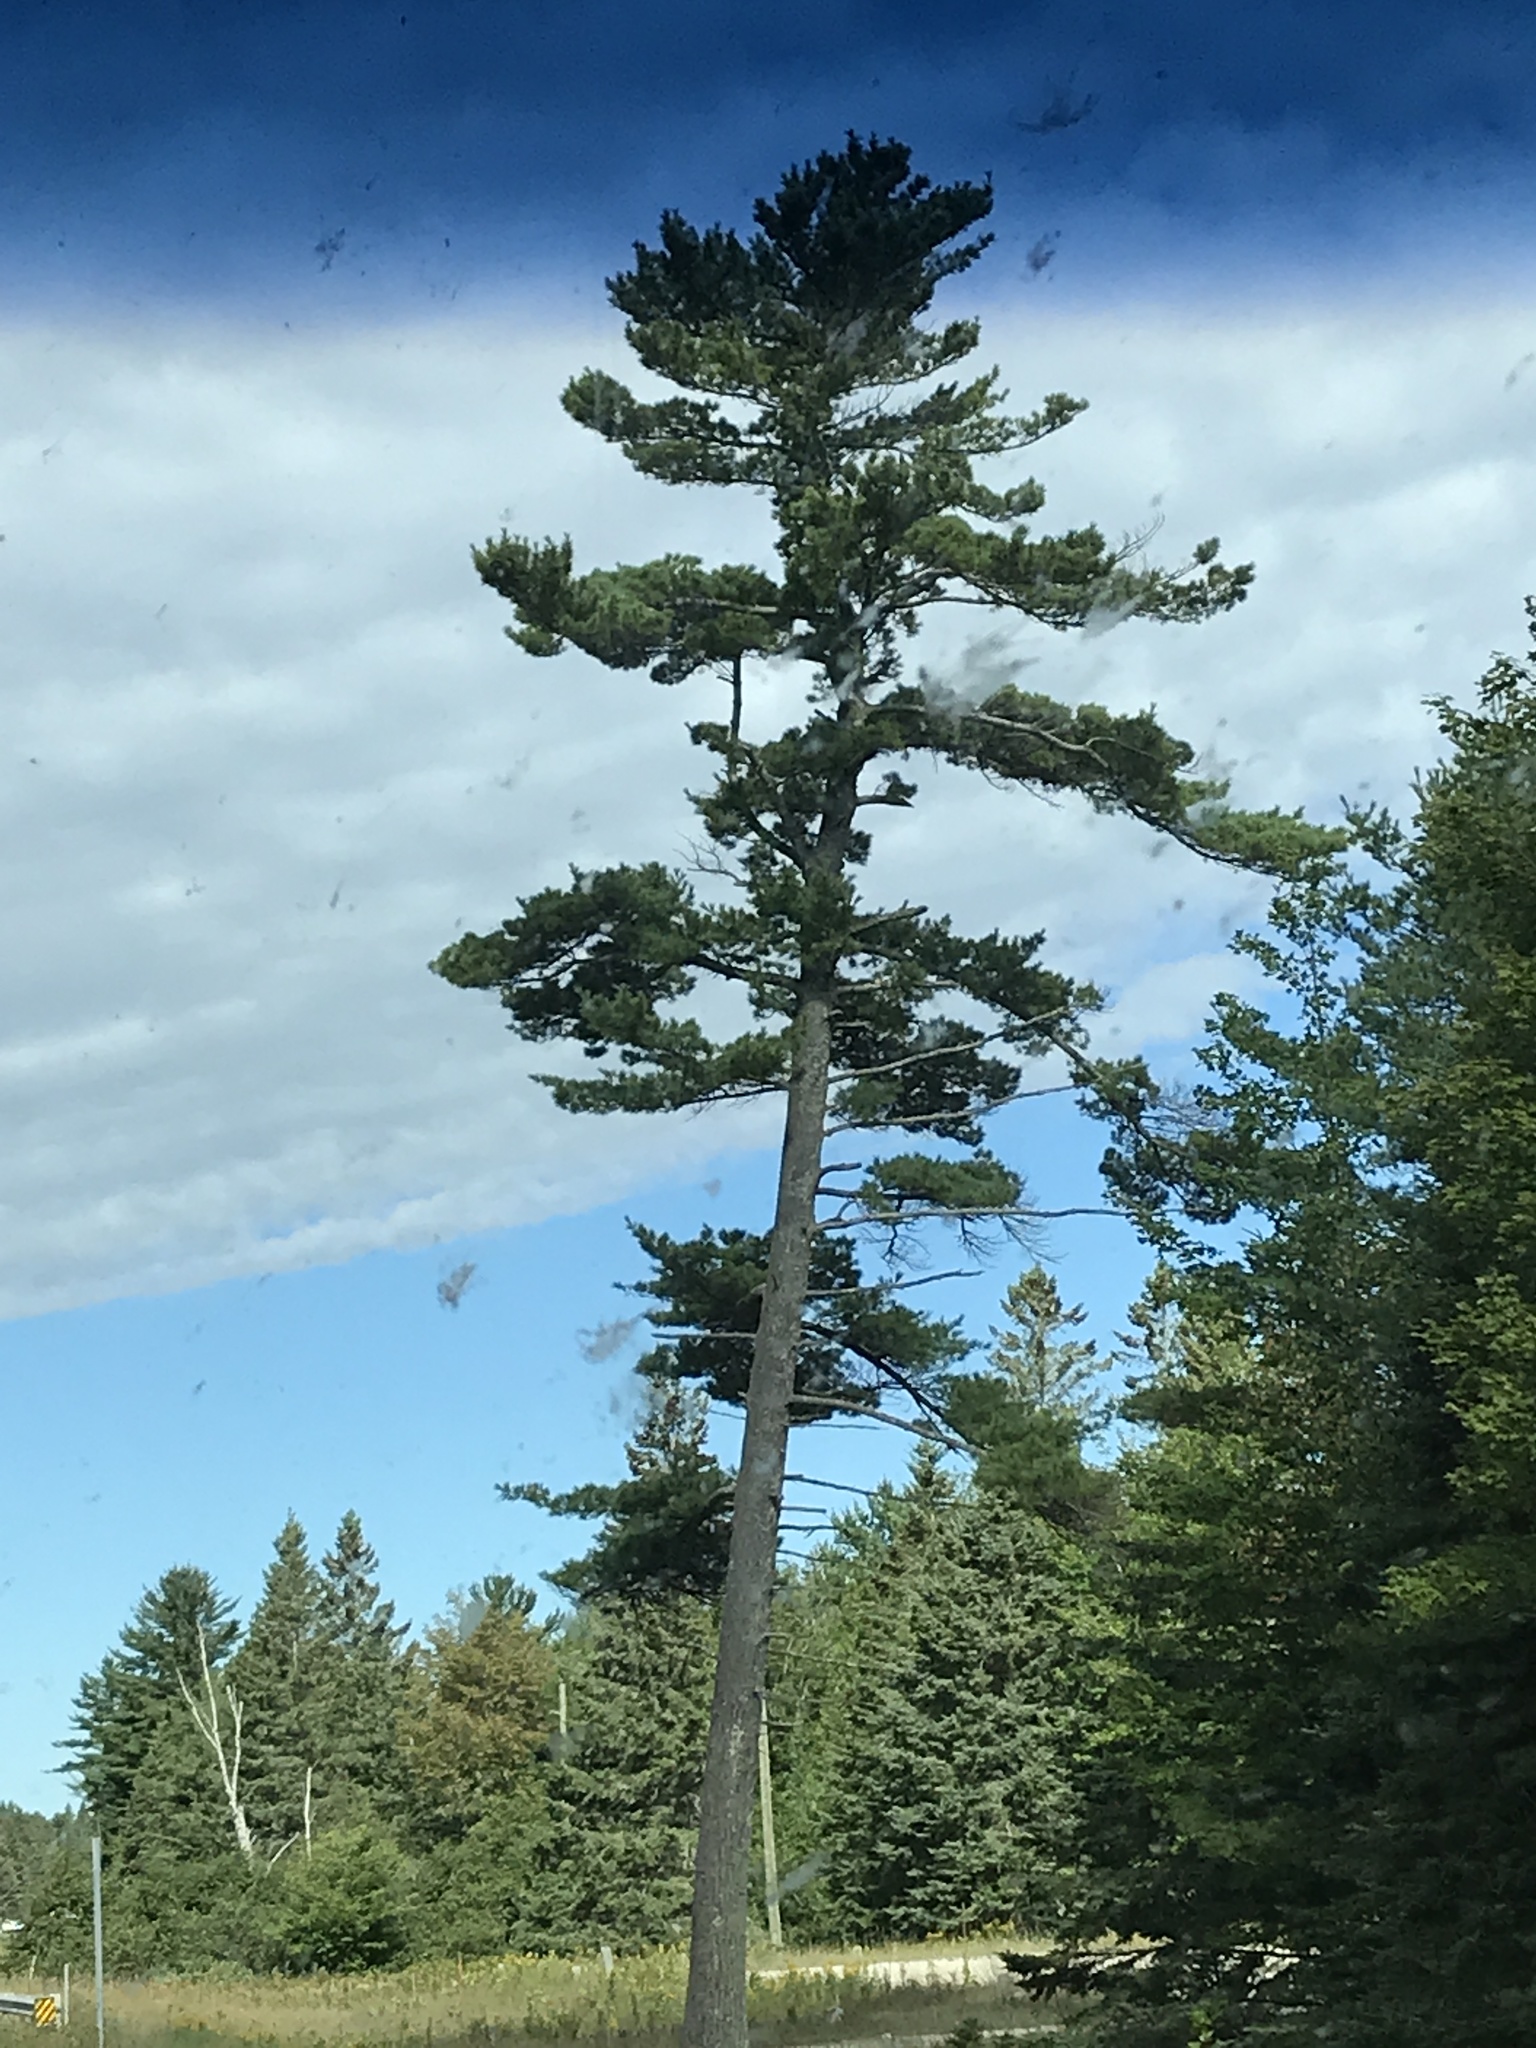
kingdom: Plantae
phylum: Tracheophyta
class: Pinopsida
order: Pinales
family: Pinaceae
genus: Pinus
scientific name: Pinus strobus
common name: Weymouth pine
